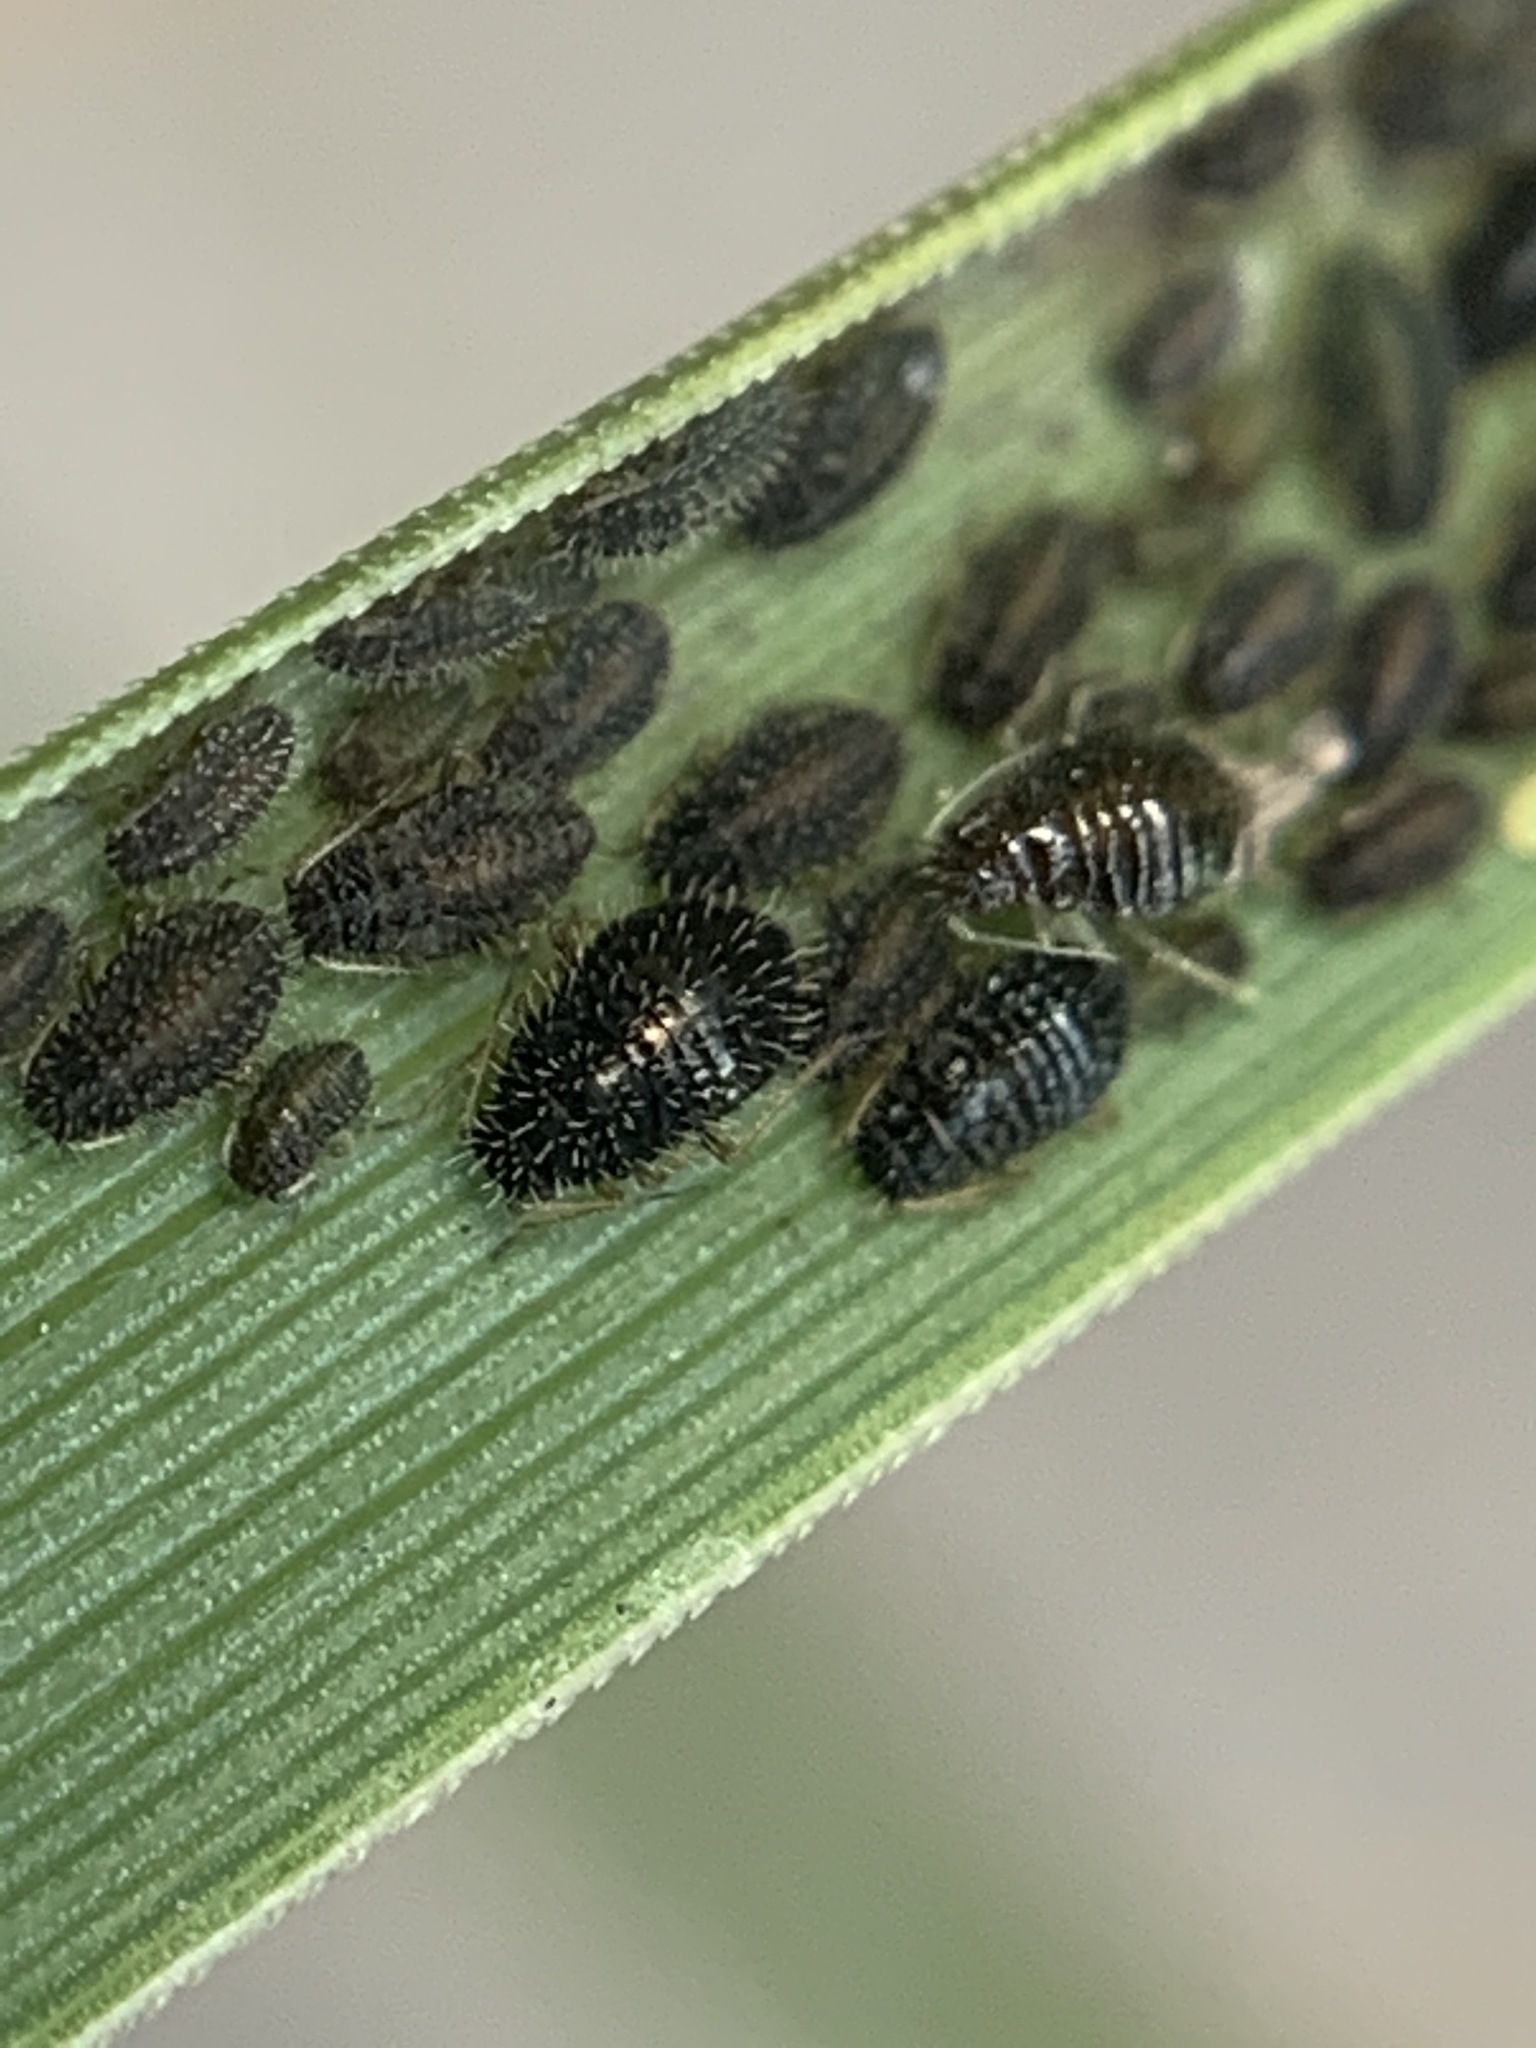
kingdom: Animalia
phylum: Arthropoda
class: Insecta
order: Hemiptera
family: Aphididae
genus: Sipha
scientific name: Sipha maydis
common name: Aphid
